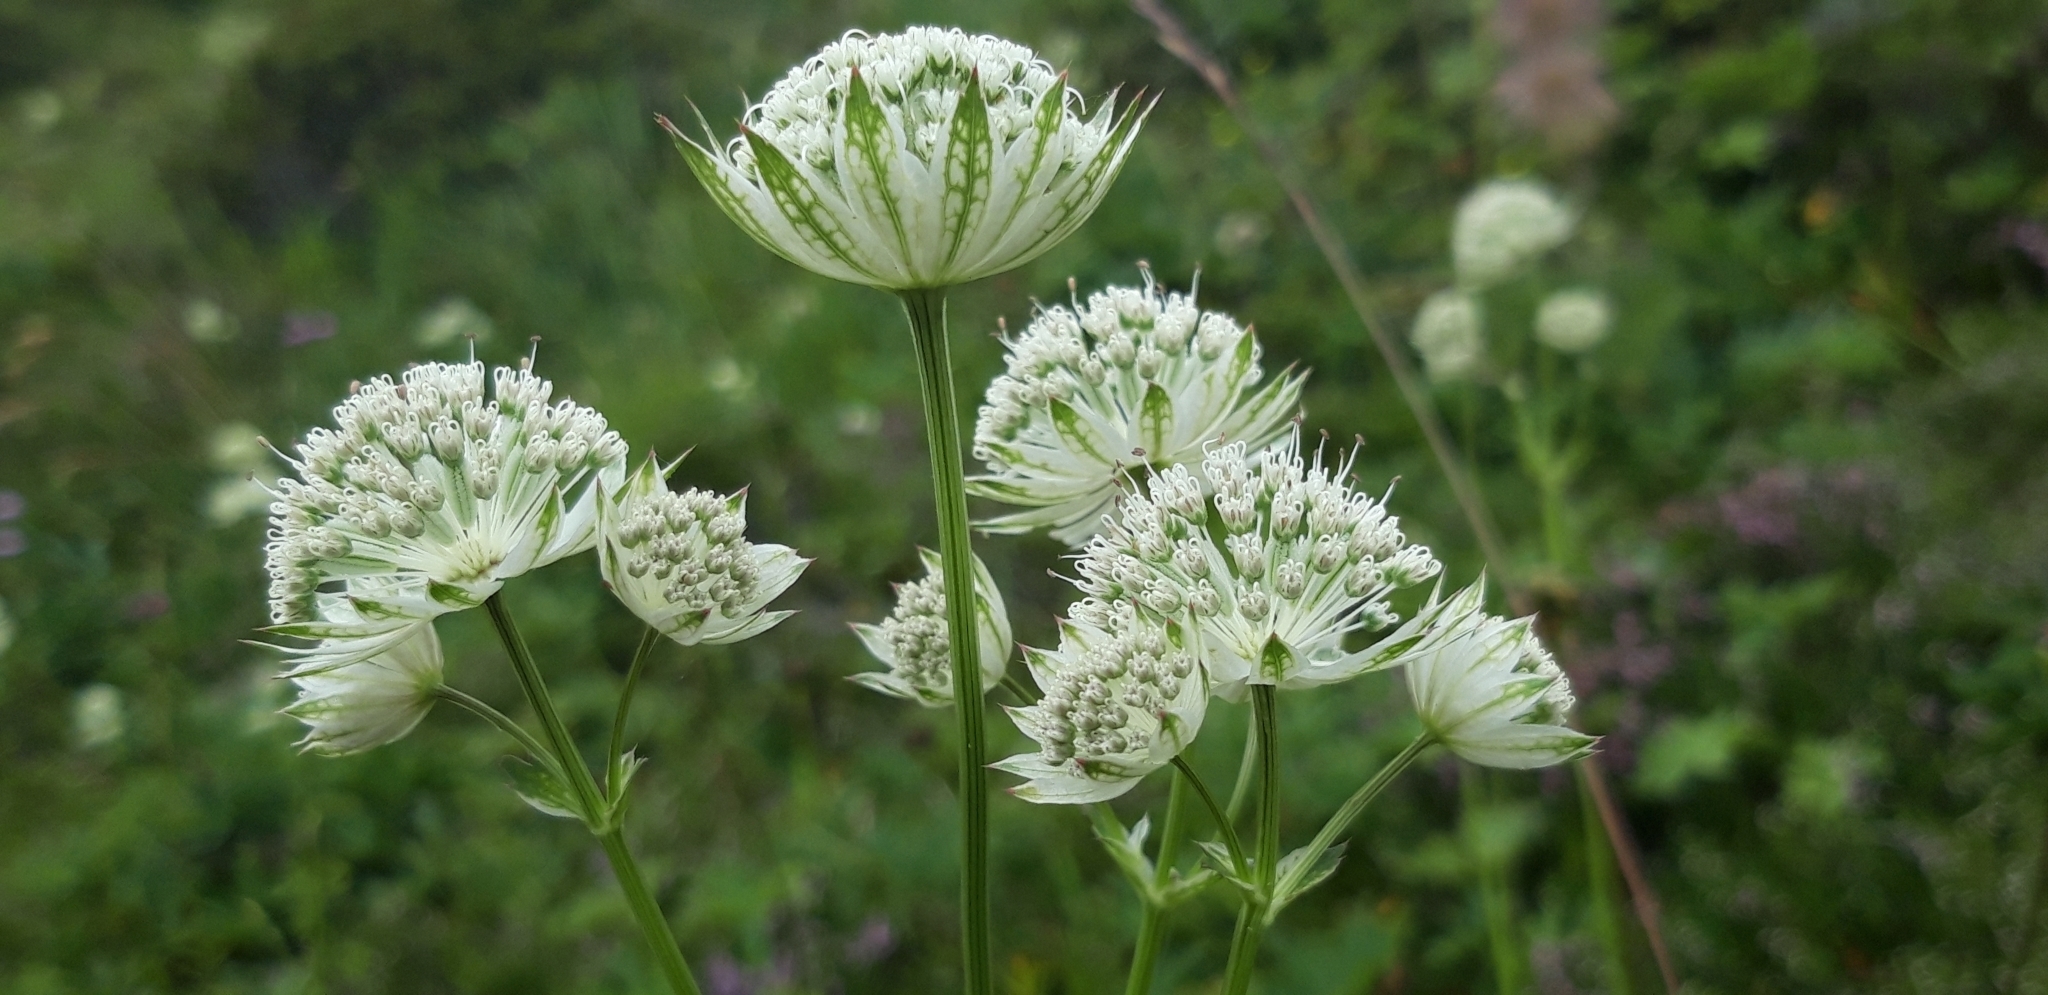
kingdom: Plantae
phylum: Tracheophyta
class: Magnoliopsida
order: Apiales
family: Apiaceae
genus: Astrantia
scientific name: Astrantia major
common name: Greater masterwort
